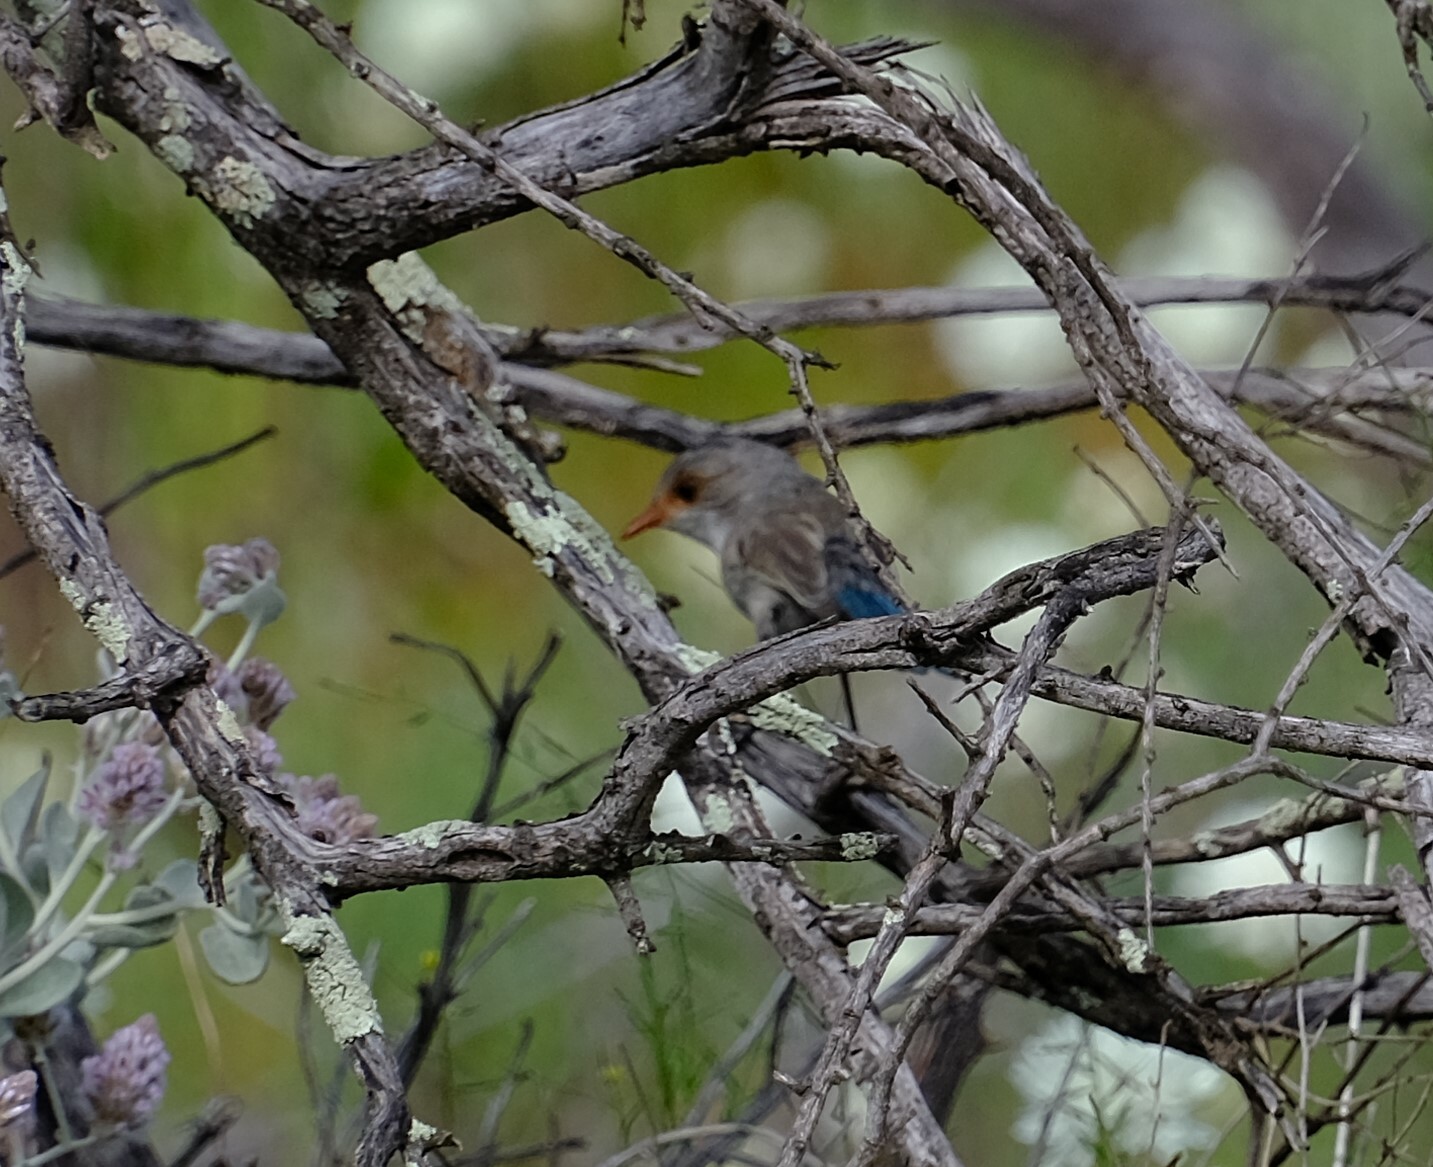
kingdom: Animalia
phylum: Chordata
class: Aves
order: Passeriformes
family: Maluridae
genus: Malurus
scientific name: Malurus splendens
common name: Splendid fairywren
